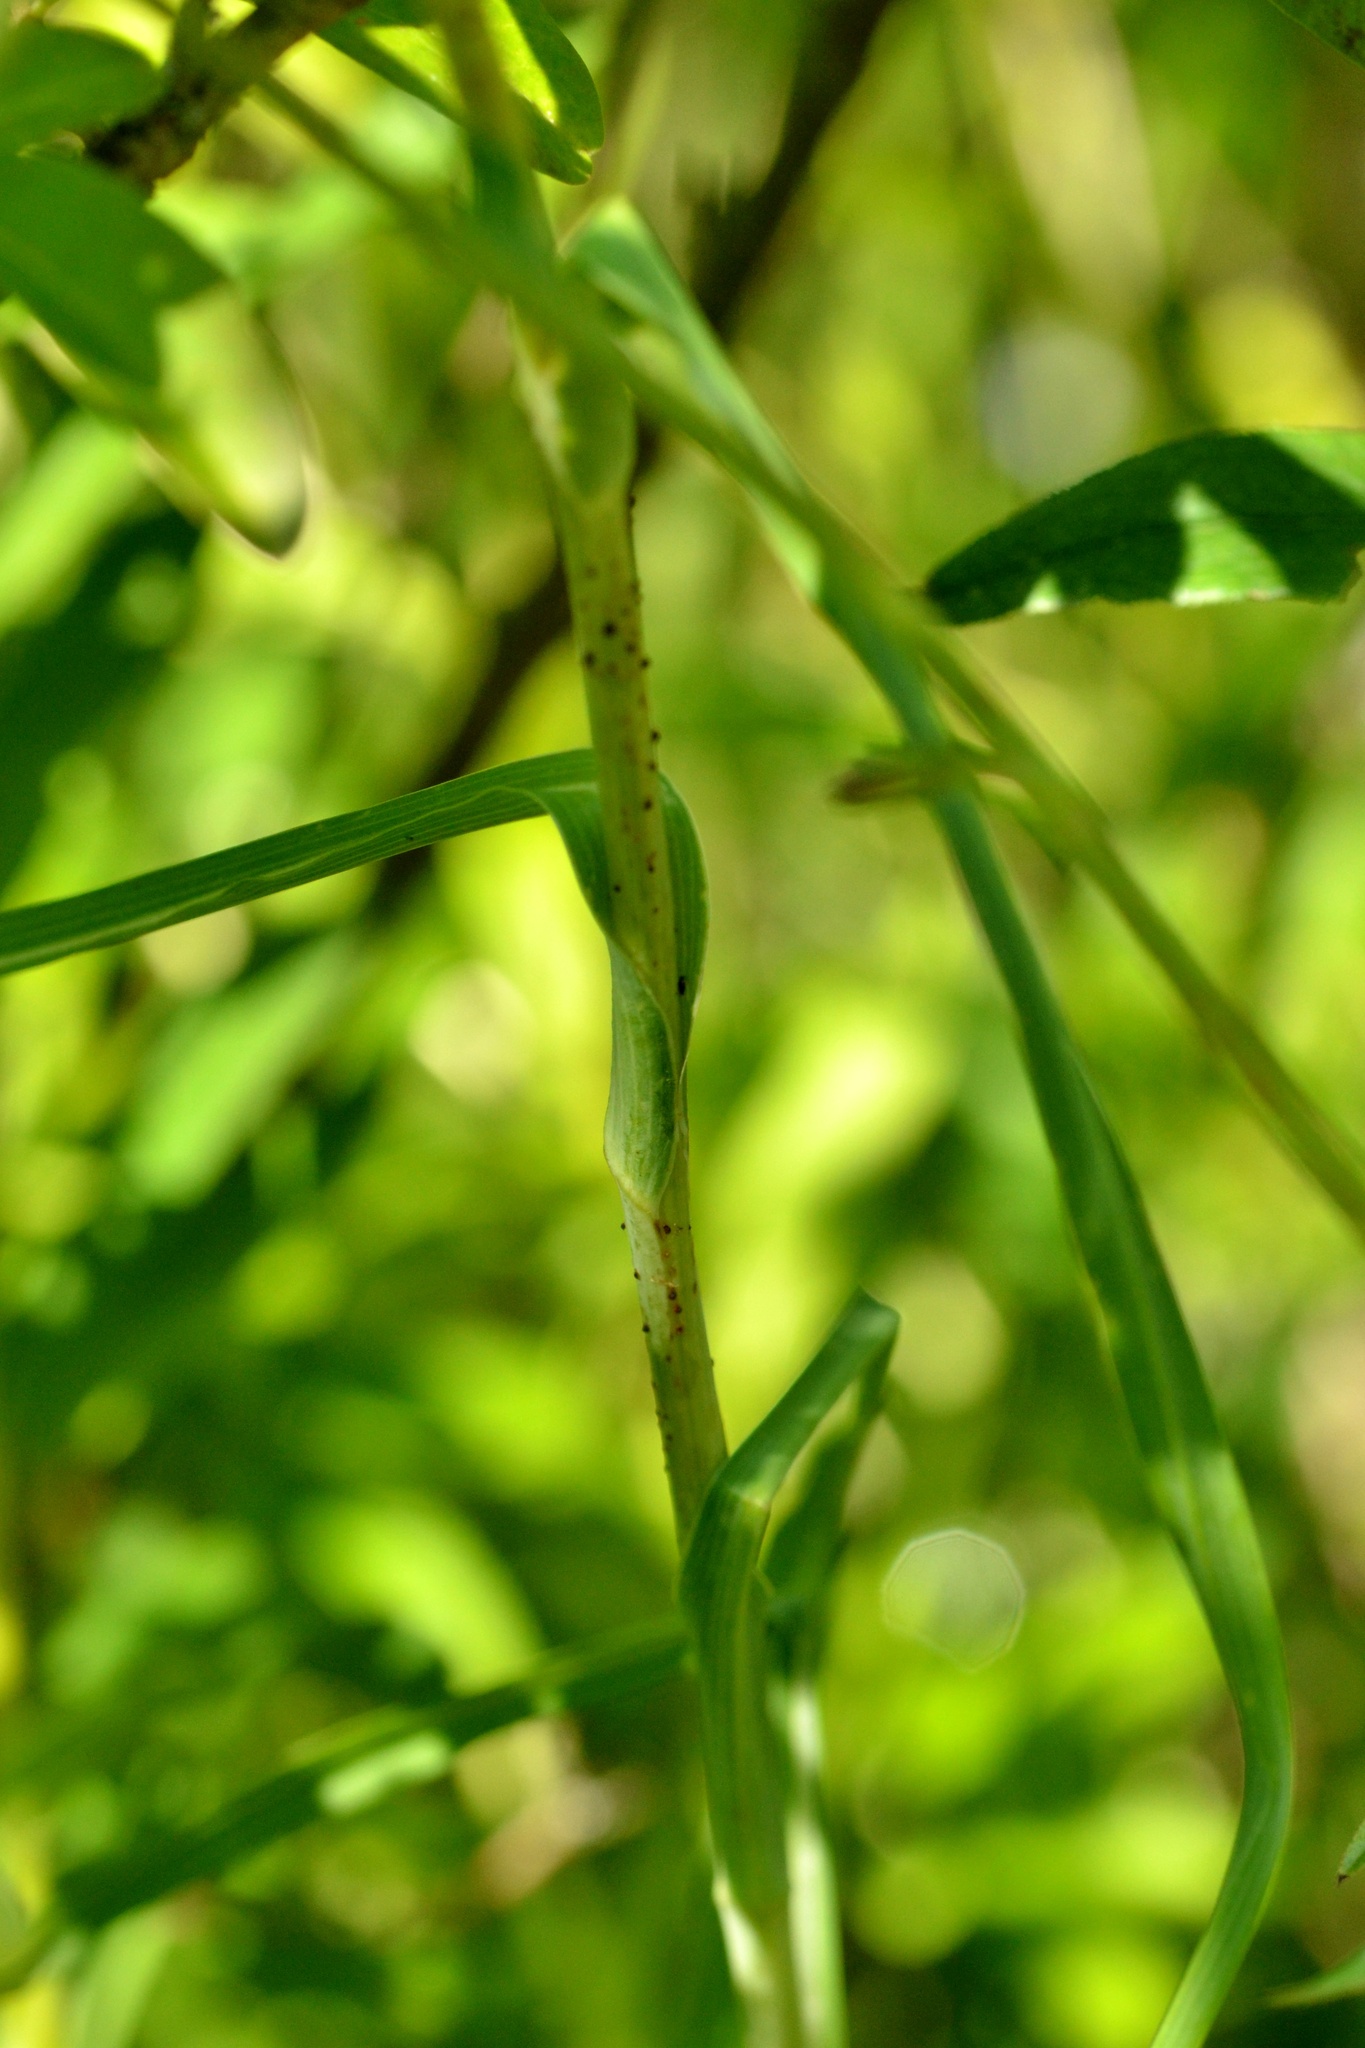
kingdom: Plantae
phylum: Tracheophyta
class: Magnoliopsida
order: Asterales
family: Asteraceae
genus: Tragopogon
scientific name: Tragopogon pratensis
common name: Goat's-beard
